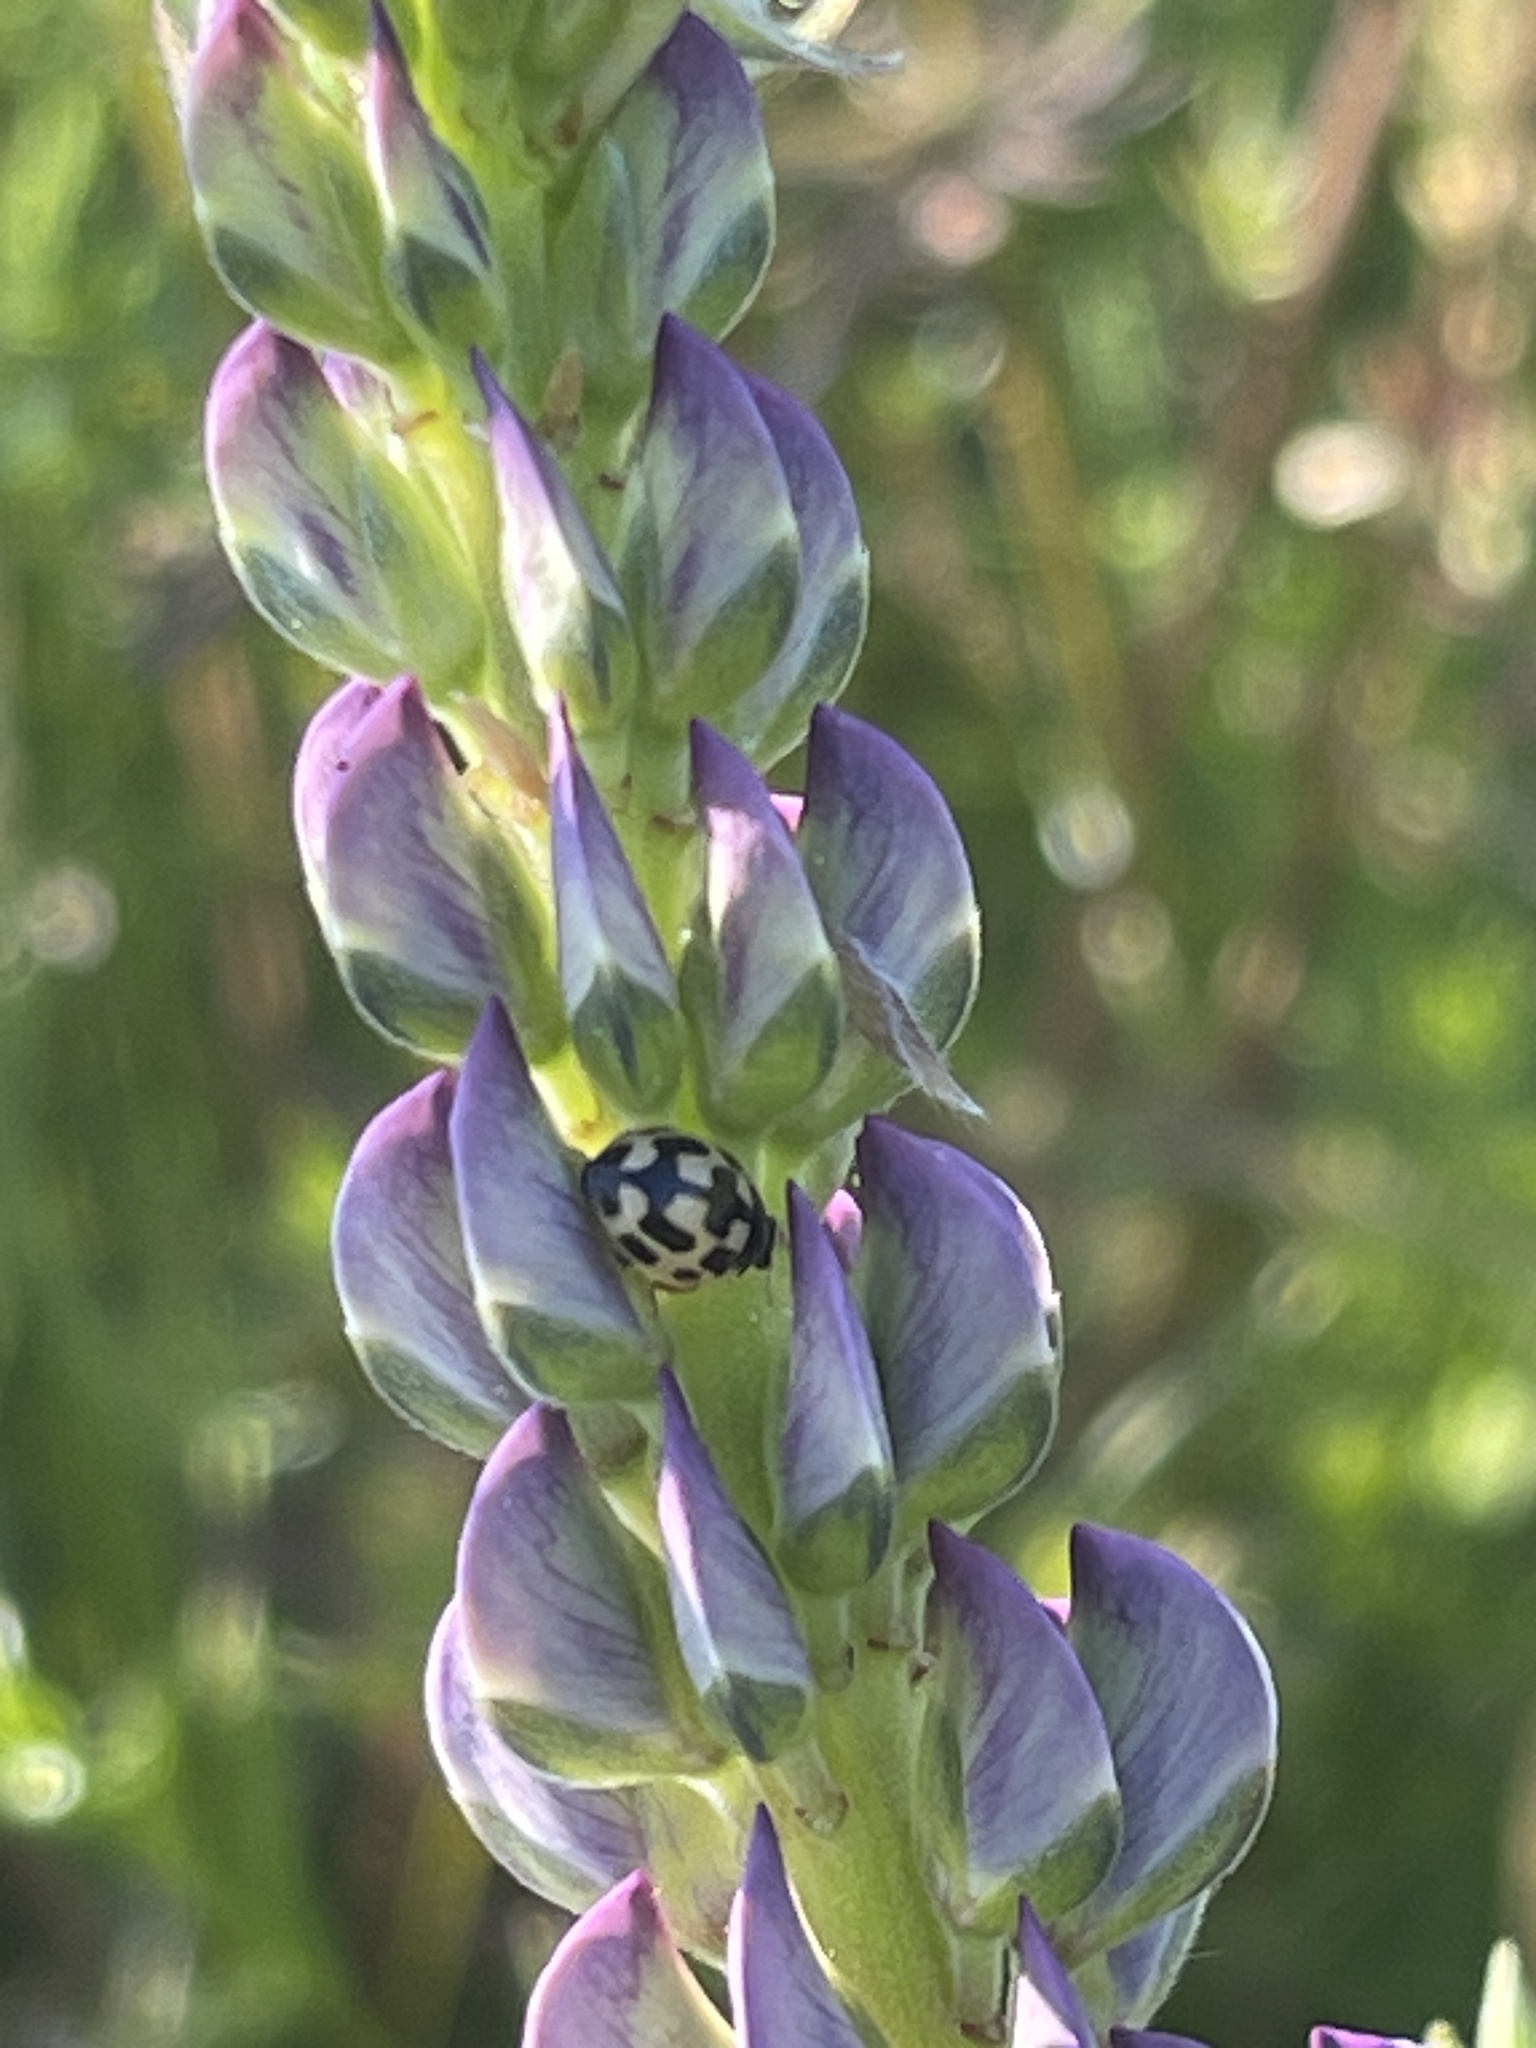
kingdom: Animalia
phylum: Arthropoda
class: Insecta
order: Coleoptera
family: Coccinellidae
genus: Propylaea
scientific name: Propylaea quatuordecimpunctata
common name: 14-spotted ladybird beetle
